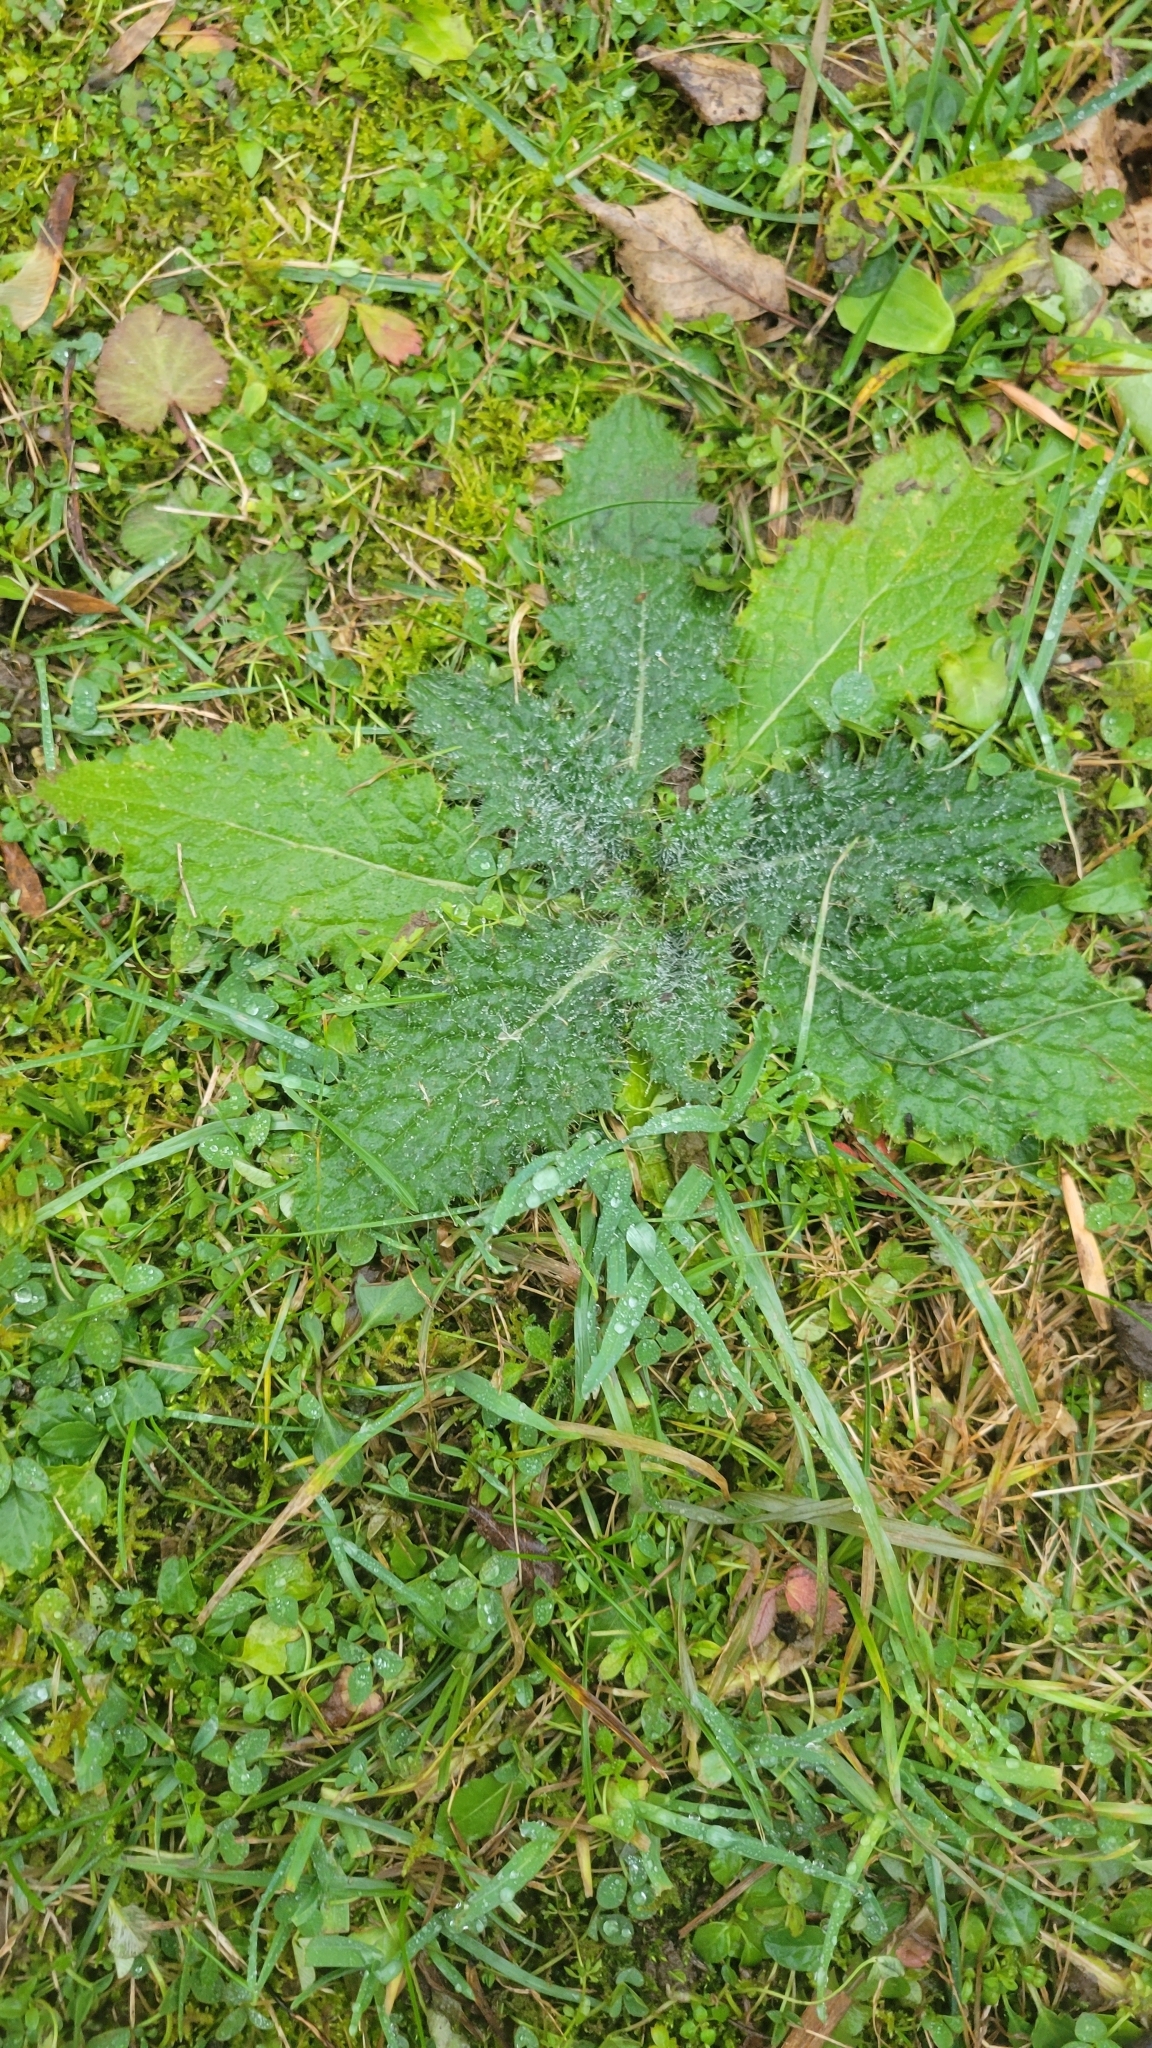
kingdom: Plantae
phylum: Tracheophyta
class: Magnoliopsida
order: Asterales
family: Asteraceae
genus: Cirsium
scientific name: Cirsium vulgare
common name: Bull thistle
